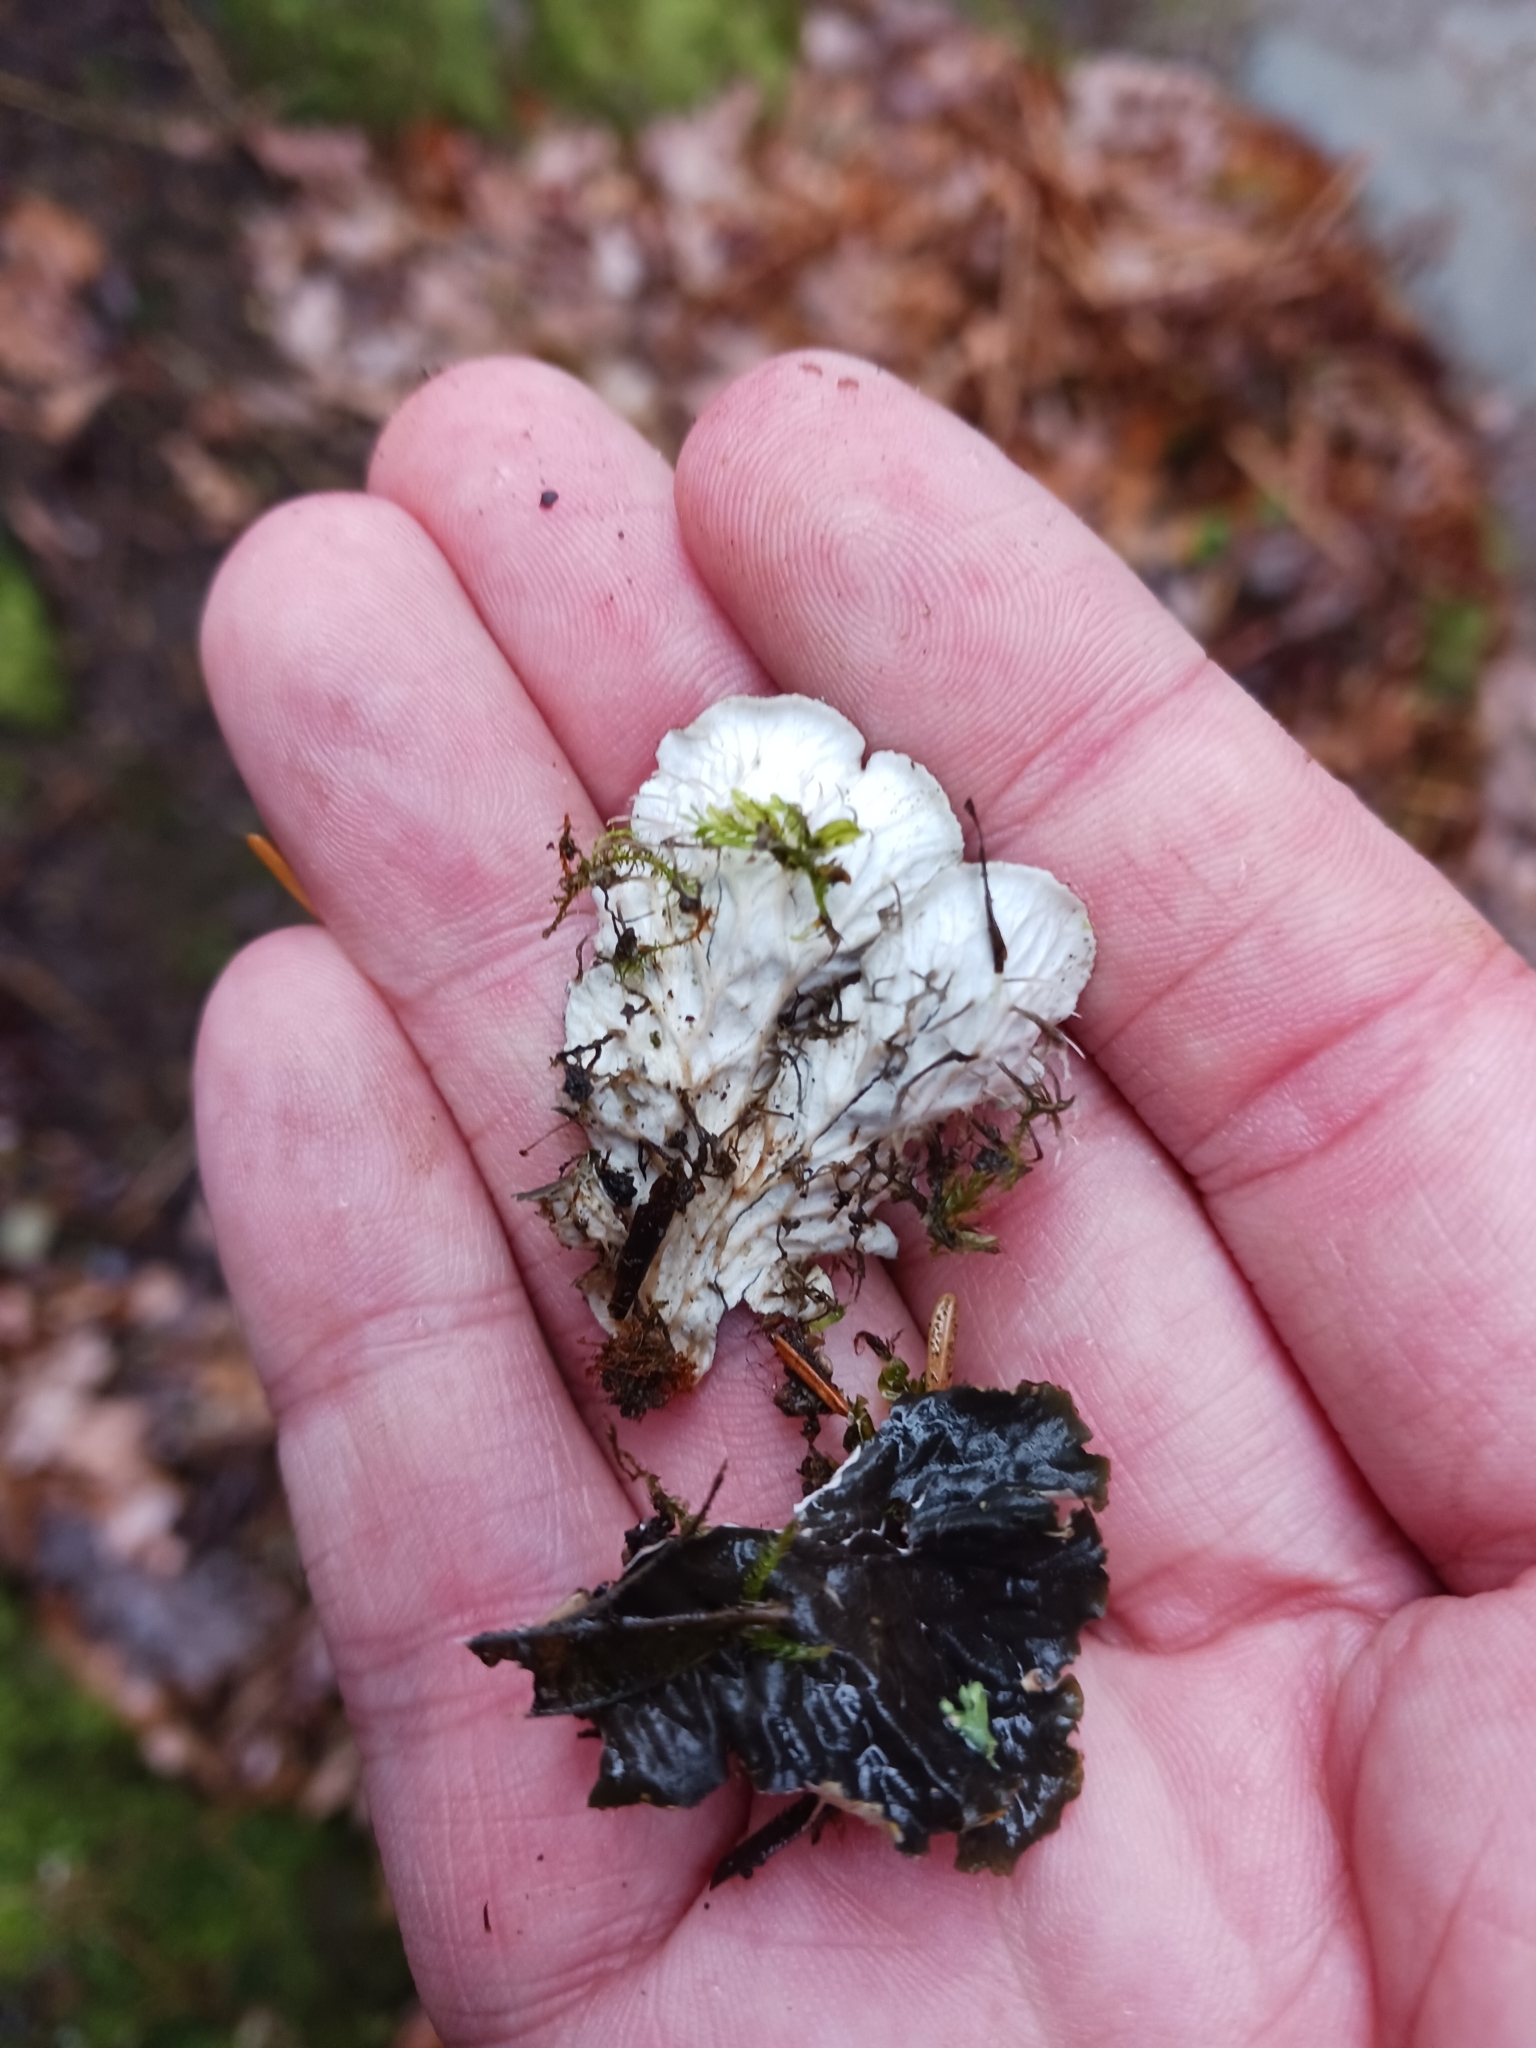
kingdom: Fungi
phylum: Ascomycota
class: Lecanoromycetes
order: Peltigerales
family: Peltigeraceae
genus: Peltigera
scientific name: Peltigera praetextata
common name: Scaly dog-lichen
